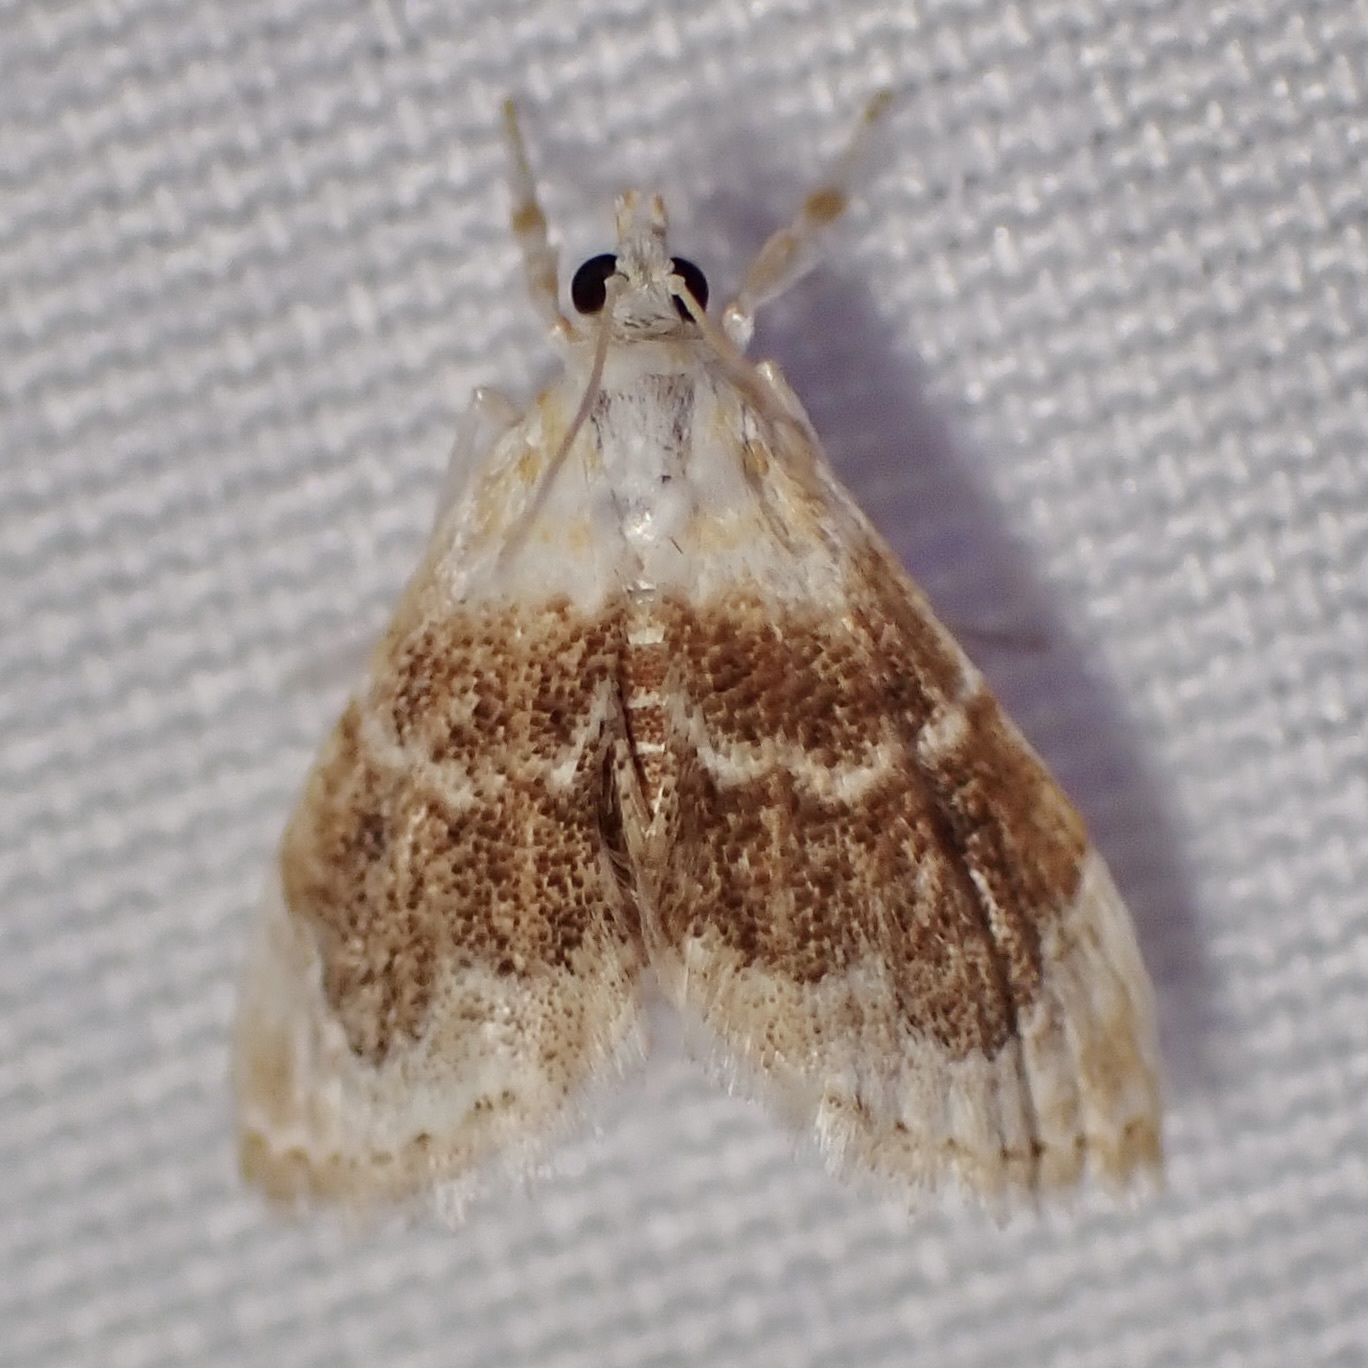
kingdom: Animalia
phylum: Arthropoda
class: Insecta
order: Lepidoptera
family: Crambidae
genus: Lipocosma
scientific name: Lipocosma polingi
